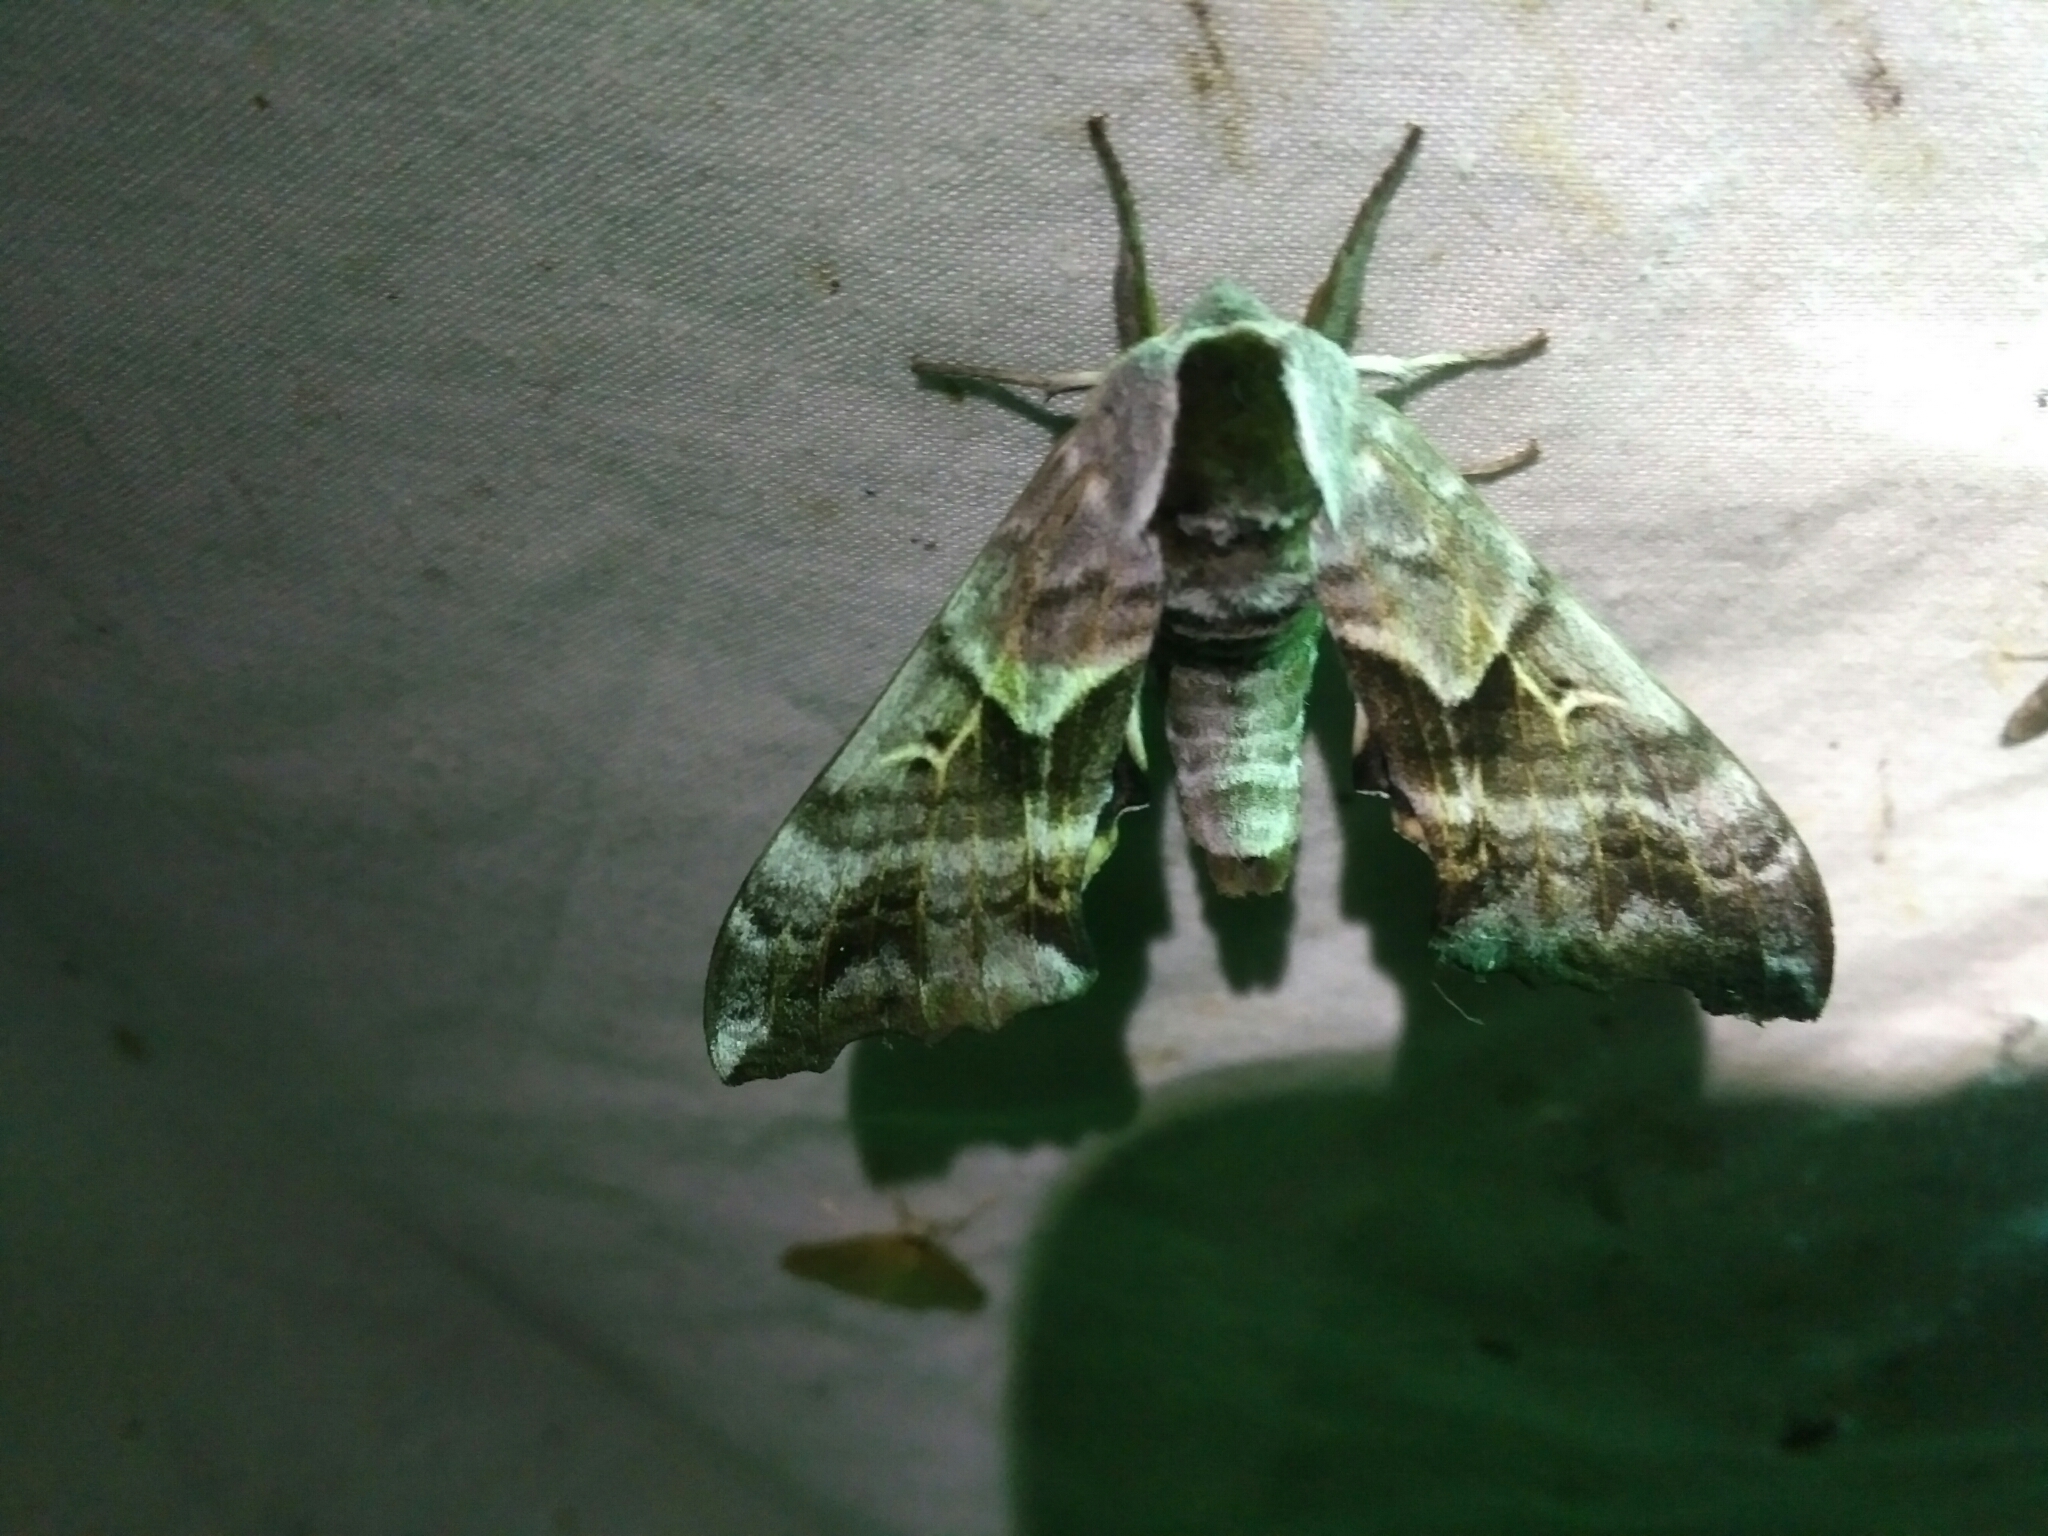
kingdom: Animalia
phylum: Arthropoda
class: Insecta
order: Lepidoptera
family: Sphingidae
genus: Smerinthus
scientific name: Smerinthus cerisyi
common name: Cerisy's sphinx moth
